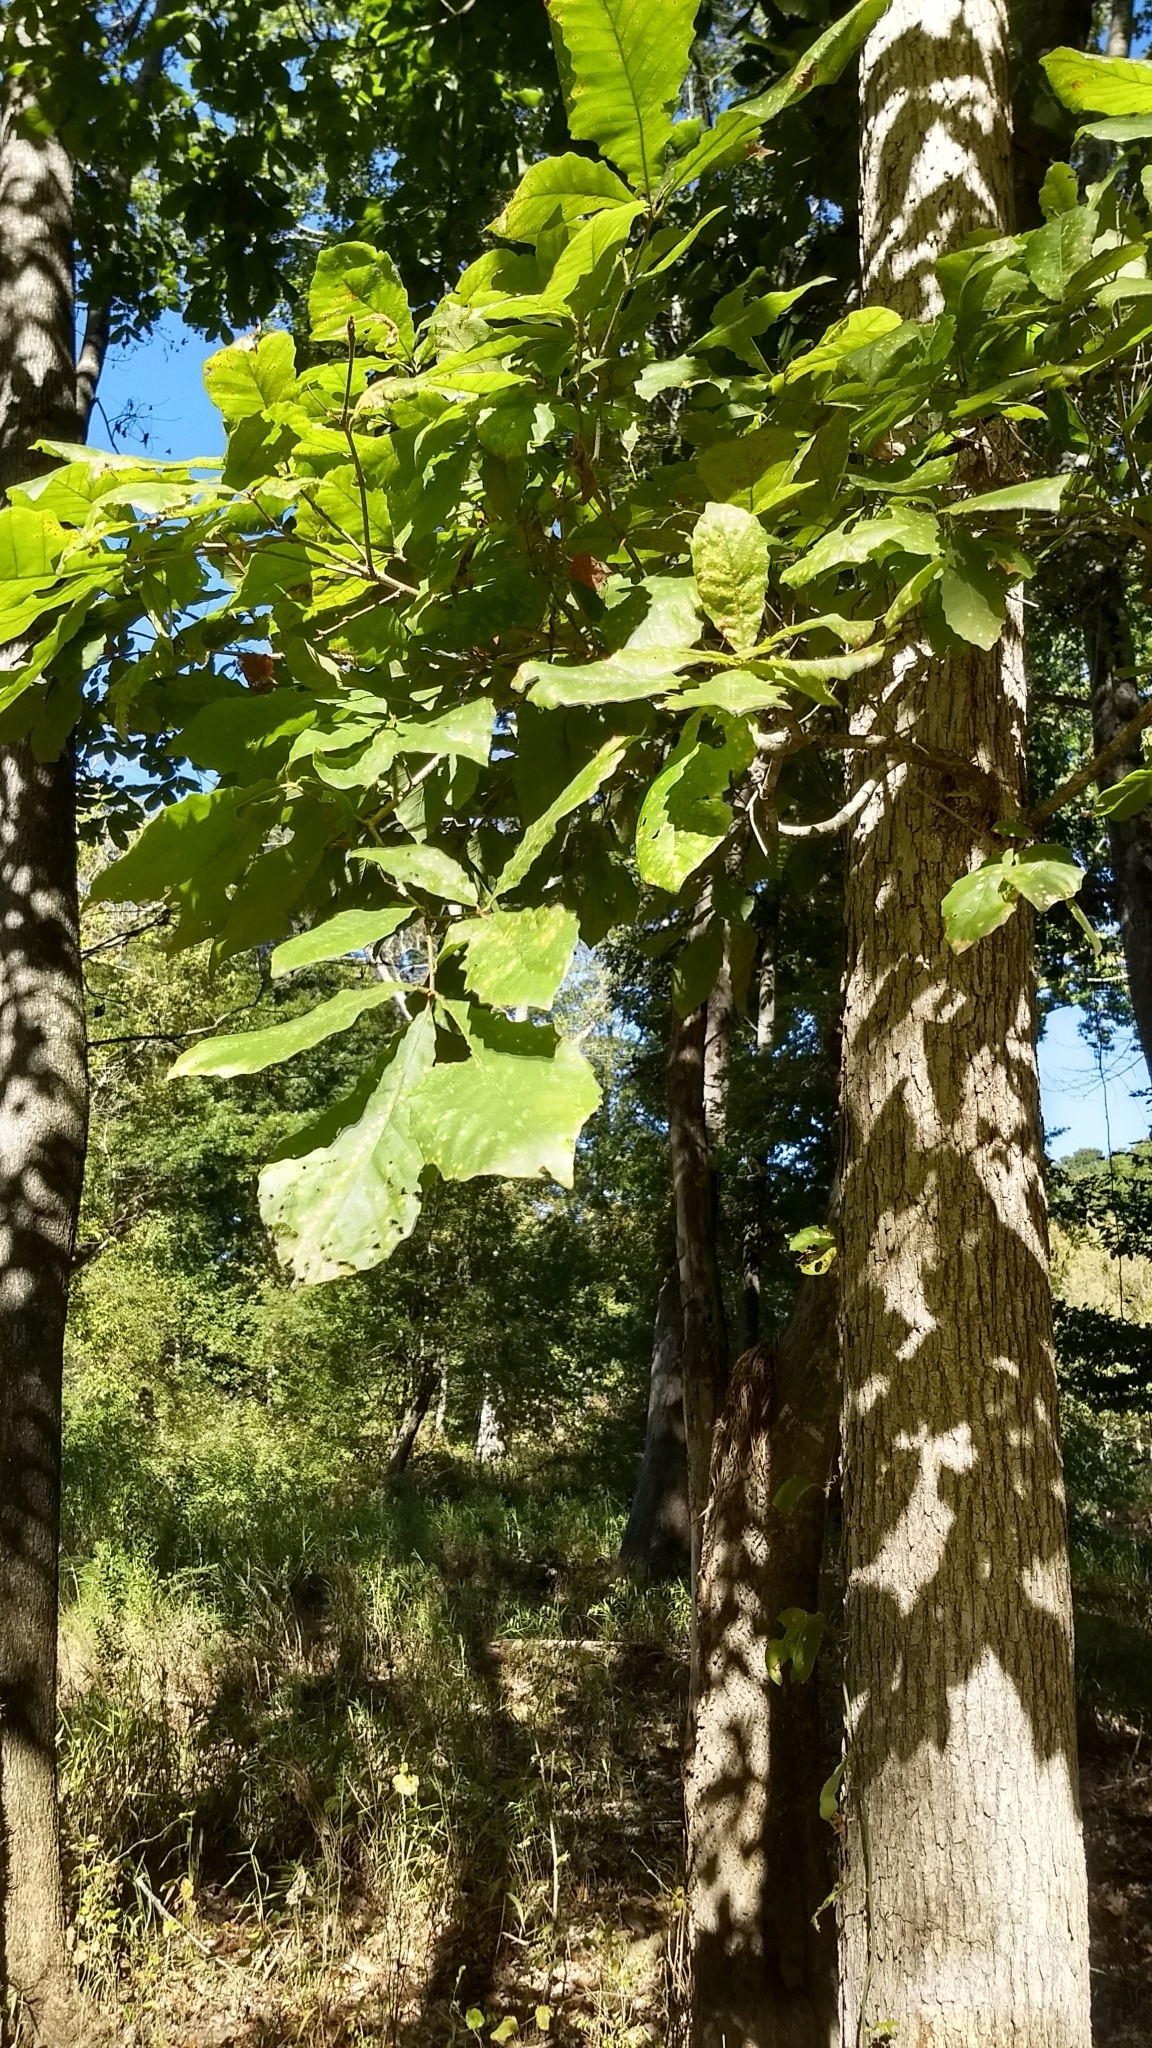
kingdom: Plantae
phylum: Tracheophyta
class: Magnoliopsida
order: Fagales
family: Fagaceae
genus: Quercus
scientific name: Quercus michauxii
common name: Swamp chestnut oak
